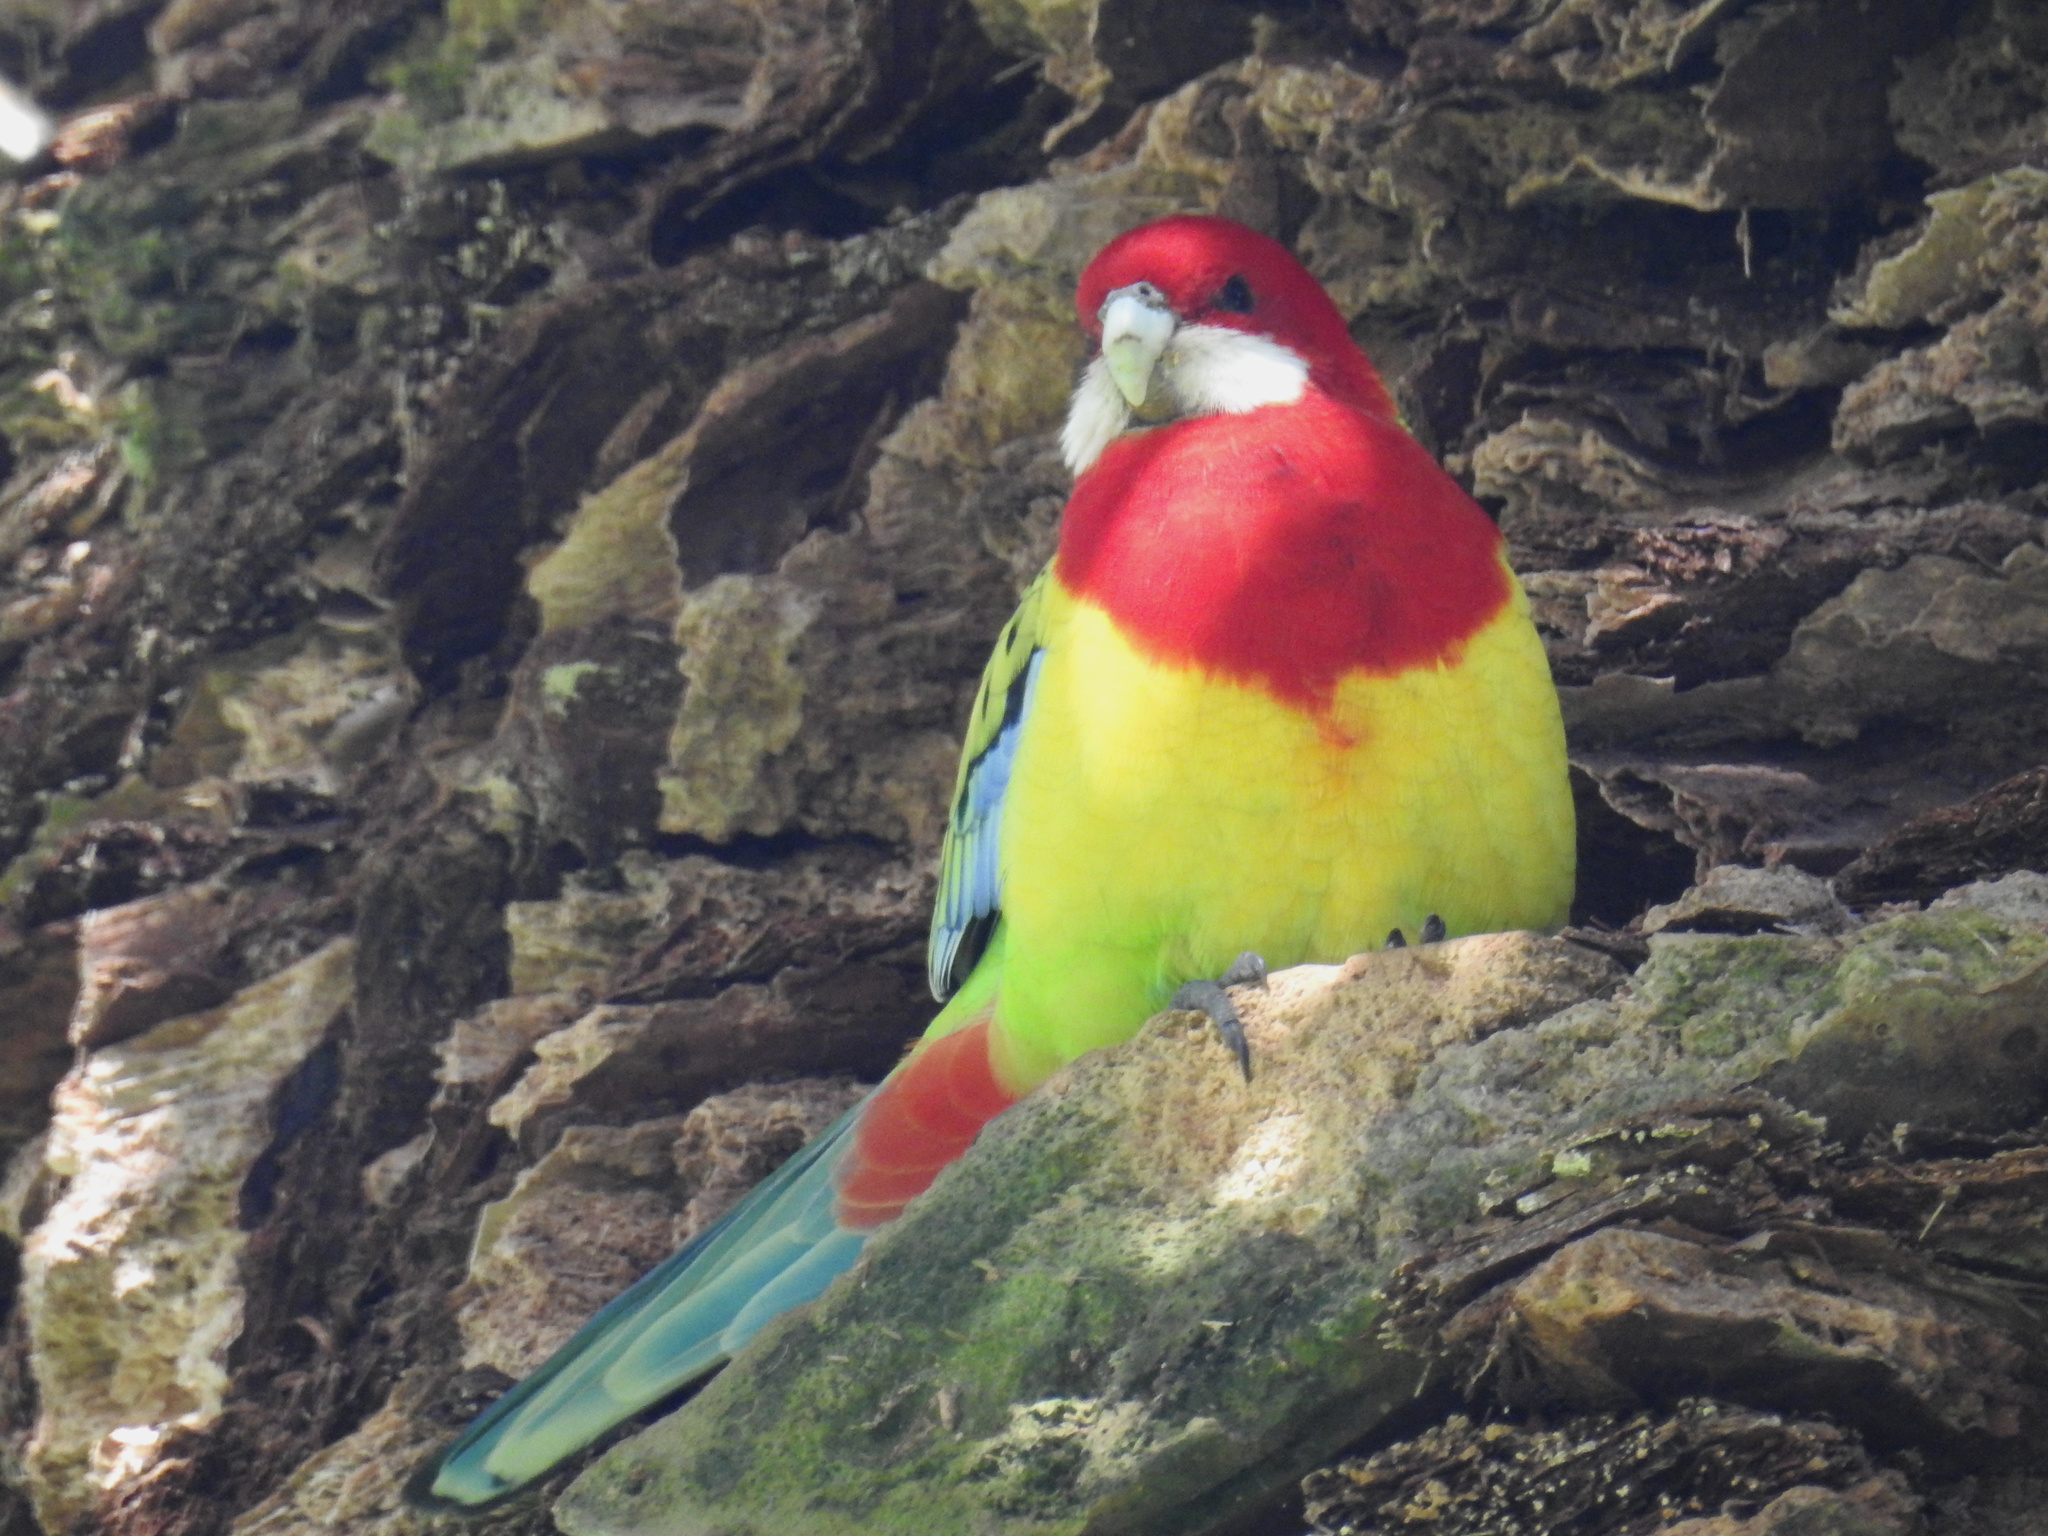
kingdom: Animalia
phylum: Chordata
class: Aves
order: Psittaciformes
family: Psittacidae
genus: Platycercus
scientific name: Platycercus eximius
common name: Eastern rosella
